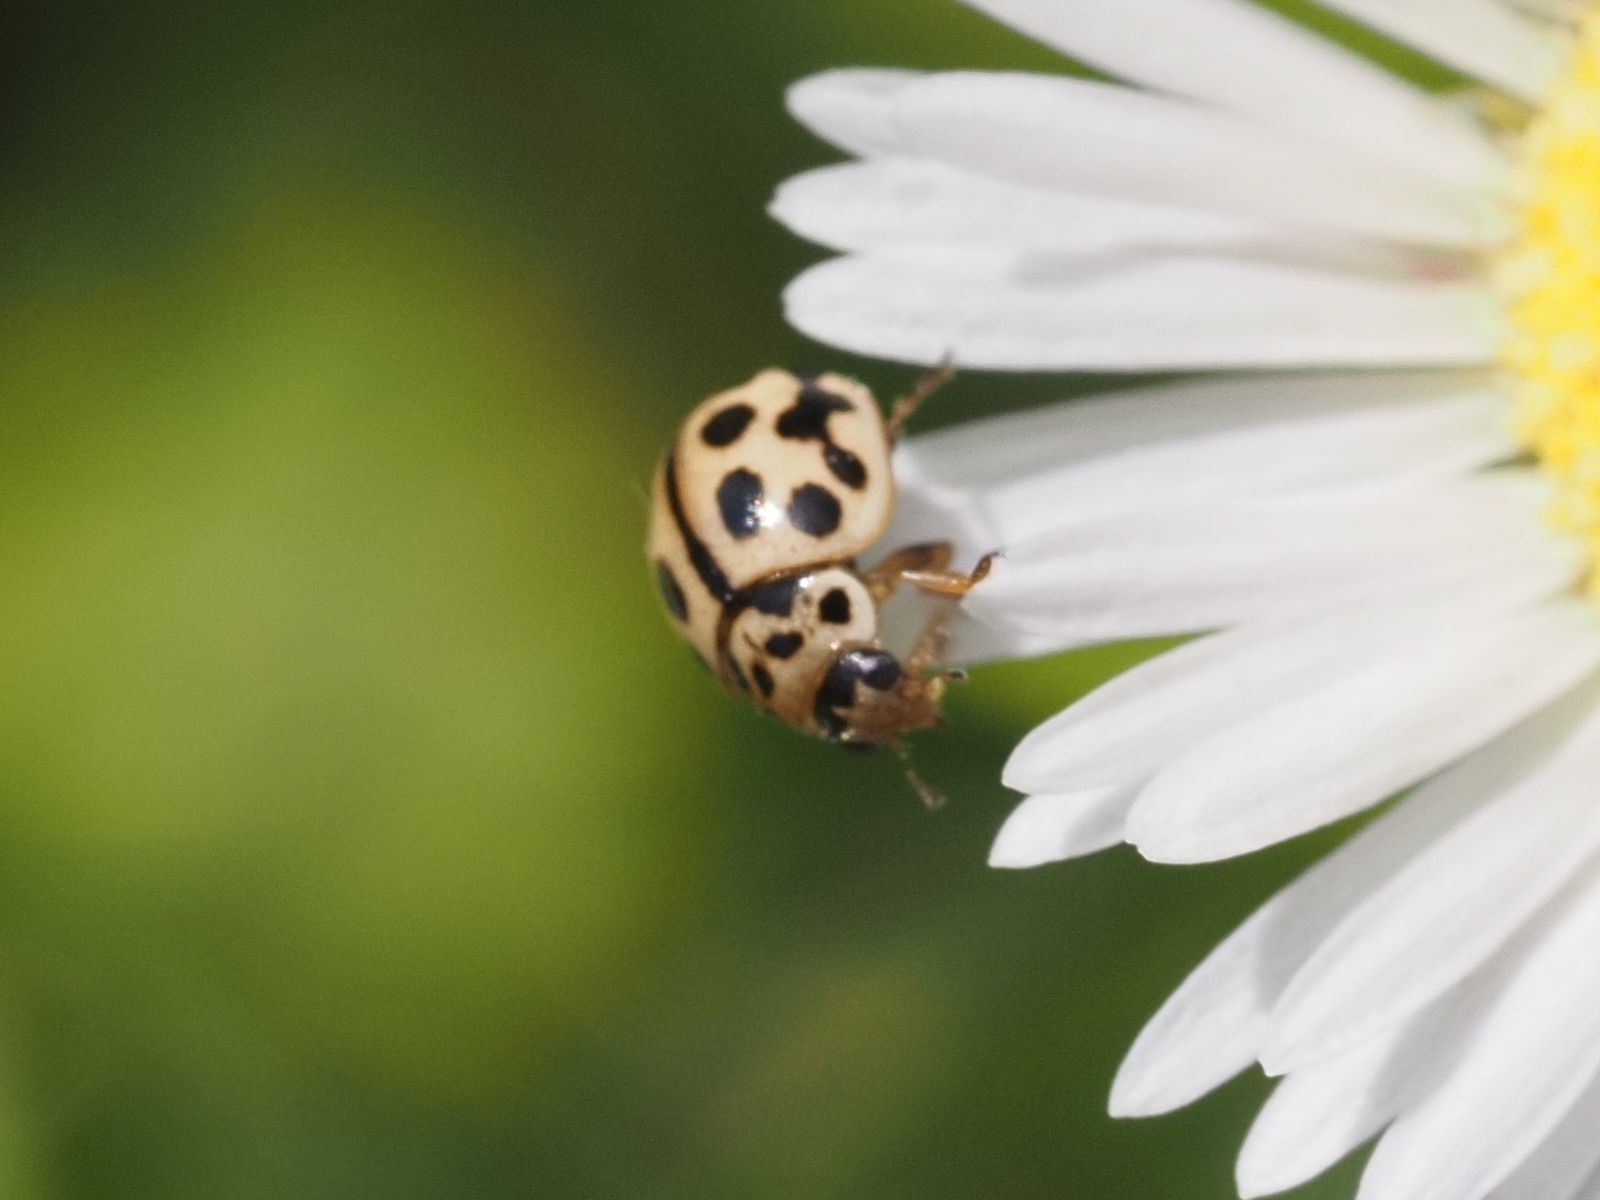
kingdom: Animalia
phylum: Arthropoda
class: Insecta
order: Coleoptera
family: Coccinellidae
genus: Tytthaspis
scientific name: Tytthaspis sedecimpunctata
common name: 16-spot ladybird
